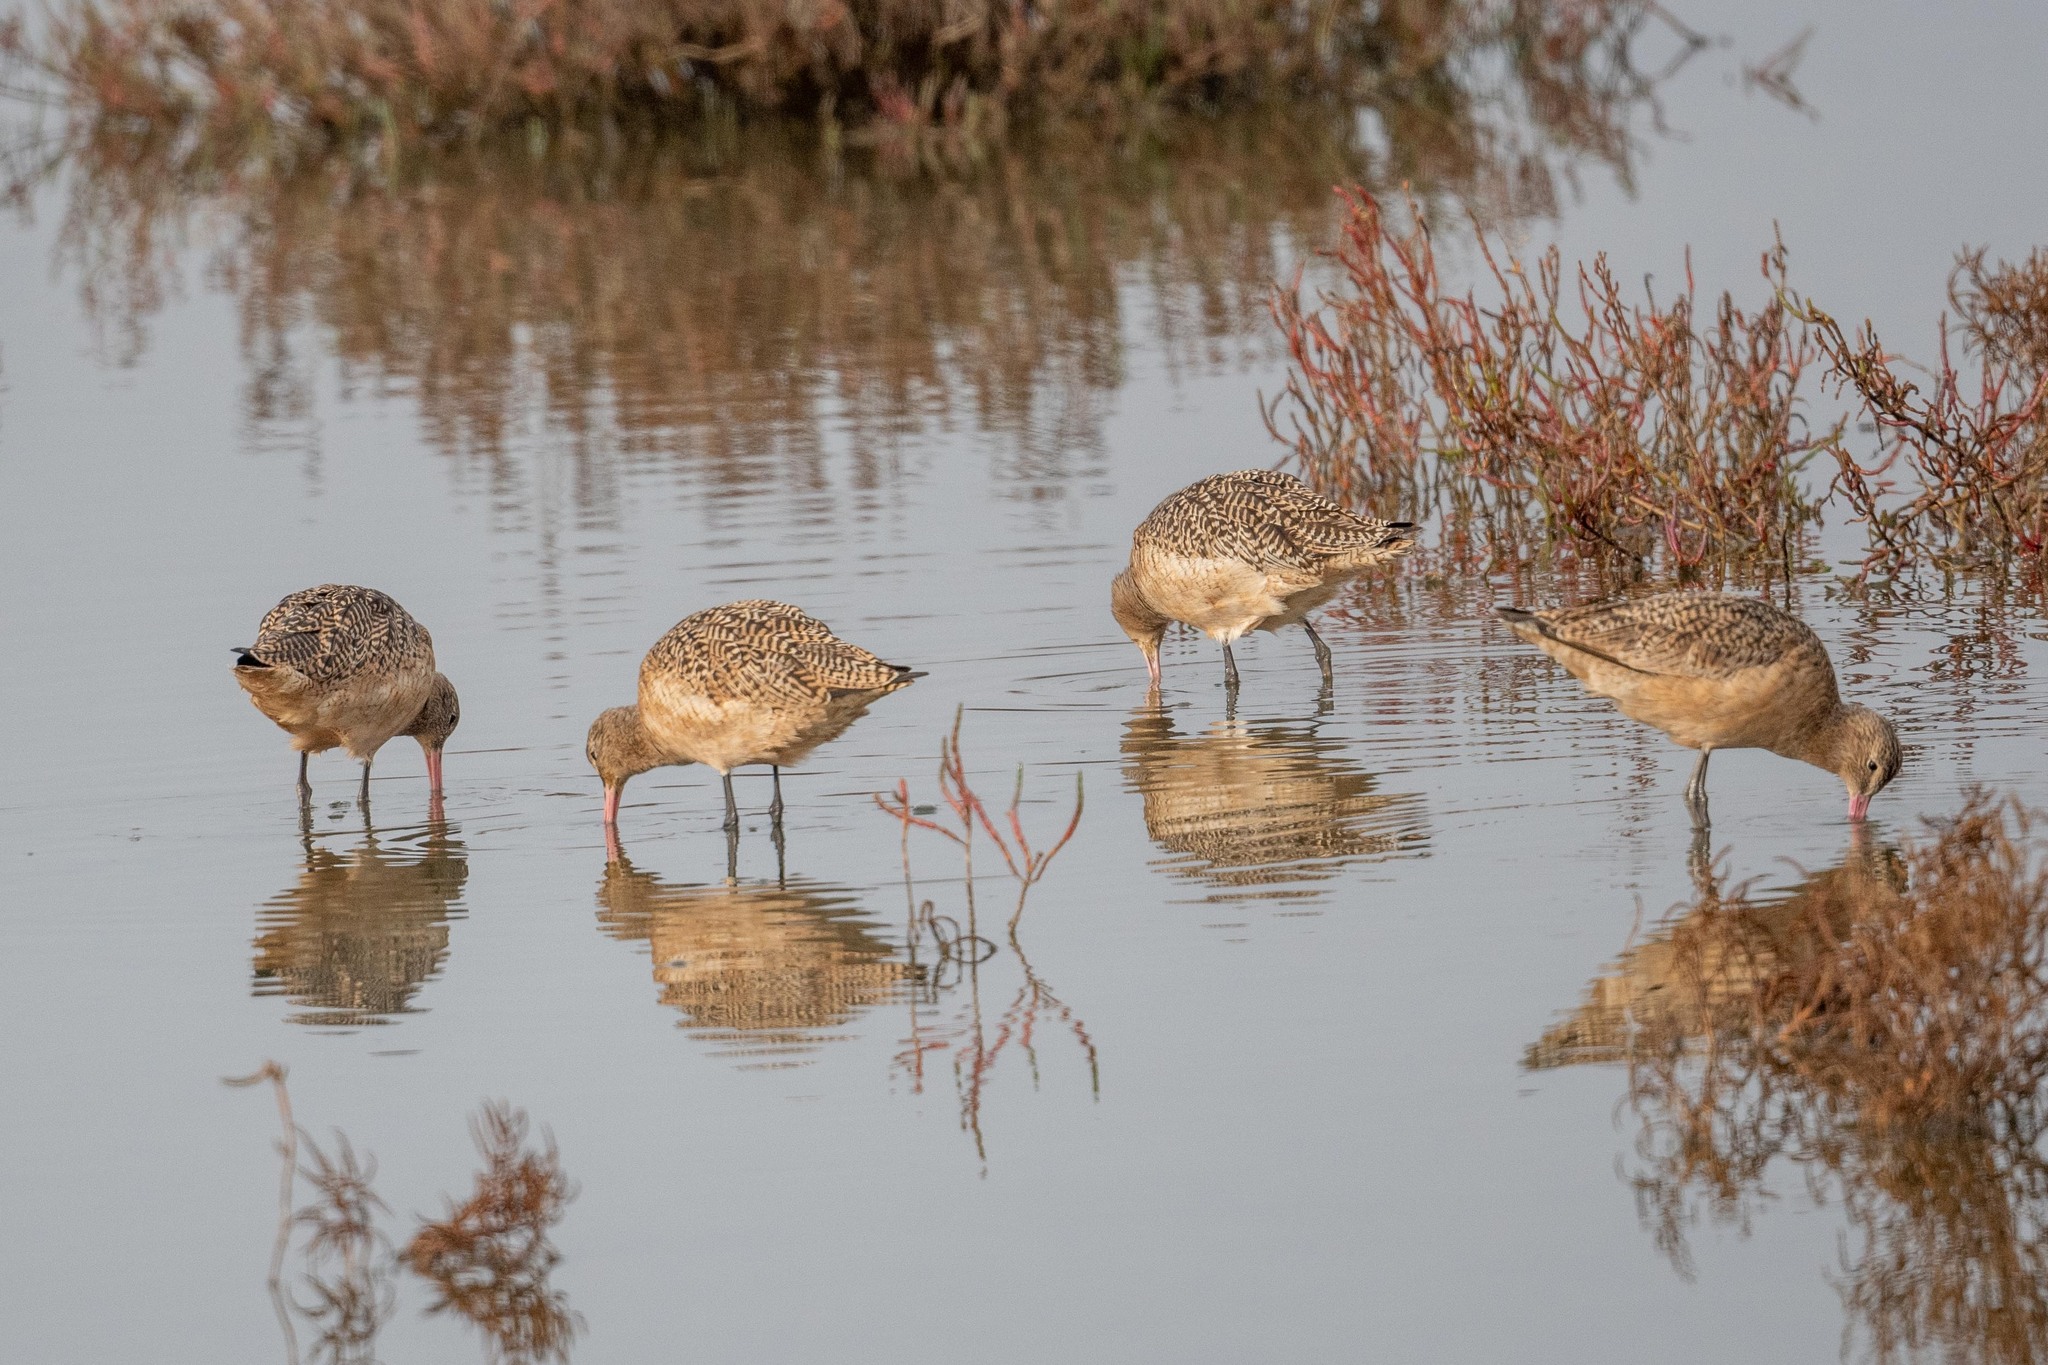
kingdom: Animalia
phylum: Chordata
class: Aves
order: Charadriiformes
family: Scolopacidae
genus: Limosa
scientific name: Limosa fedoa
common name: Marbled godwit
